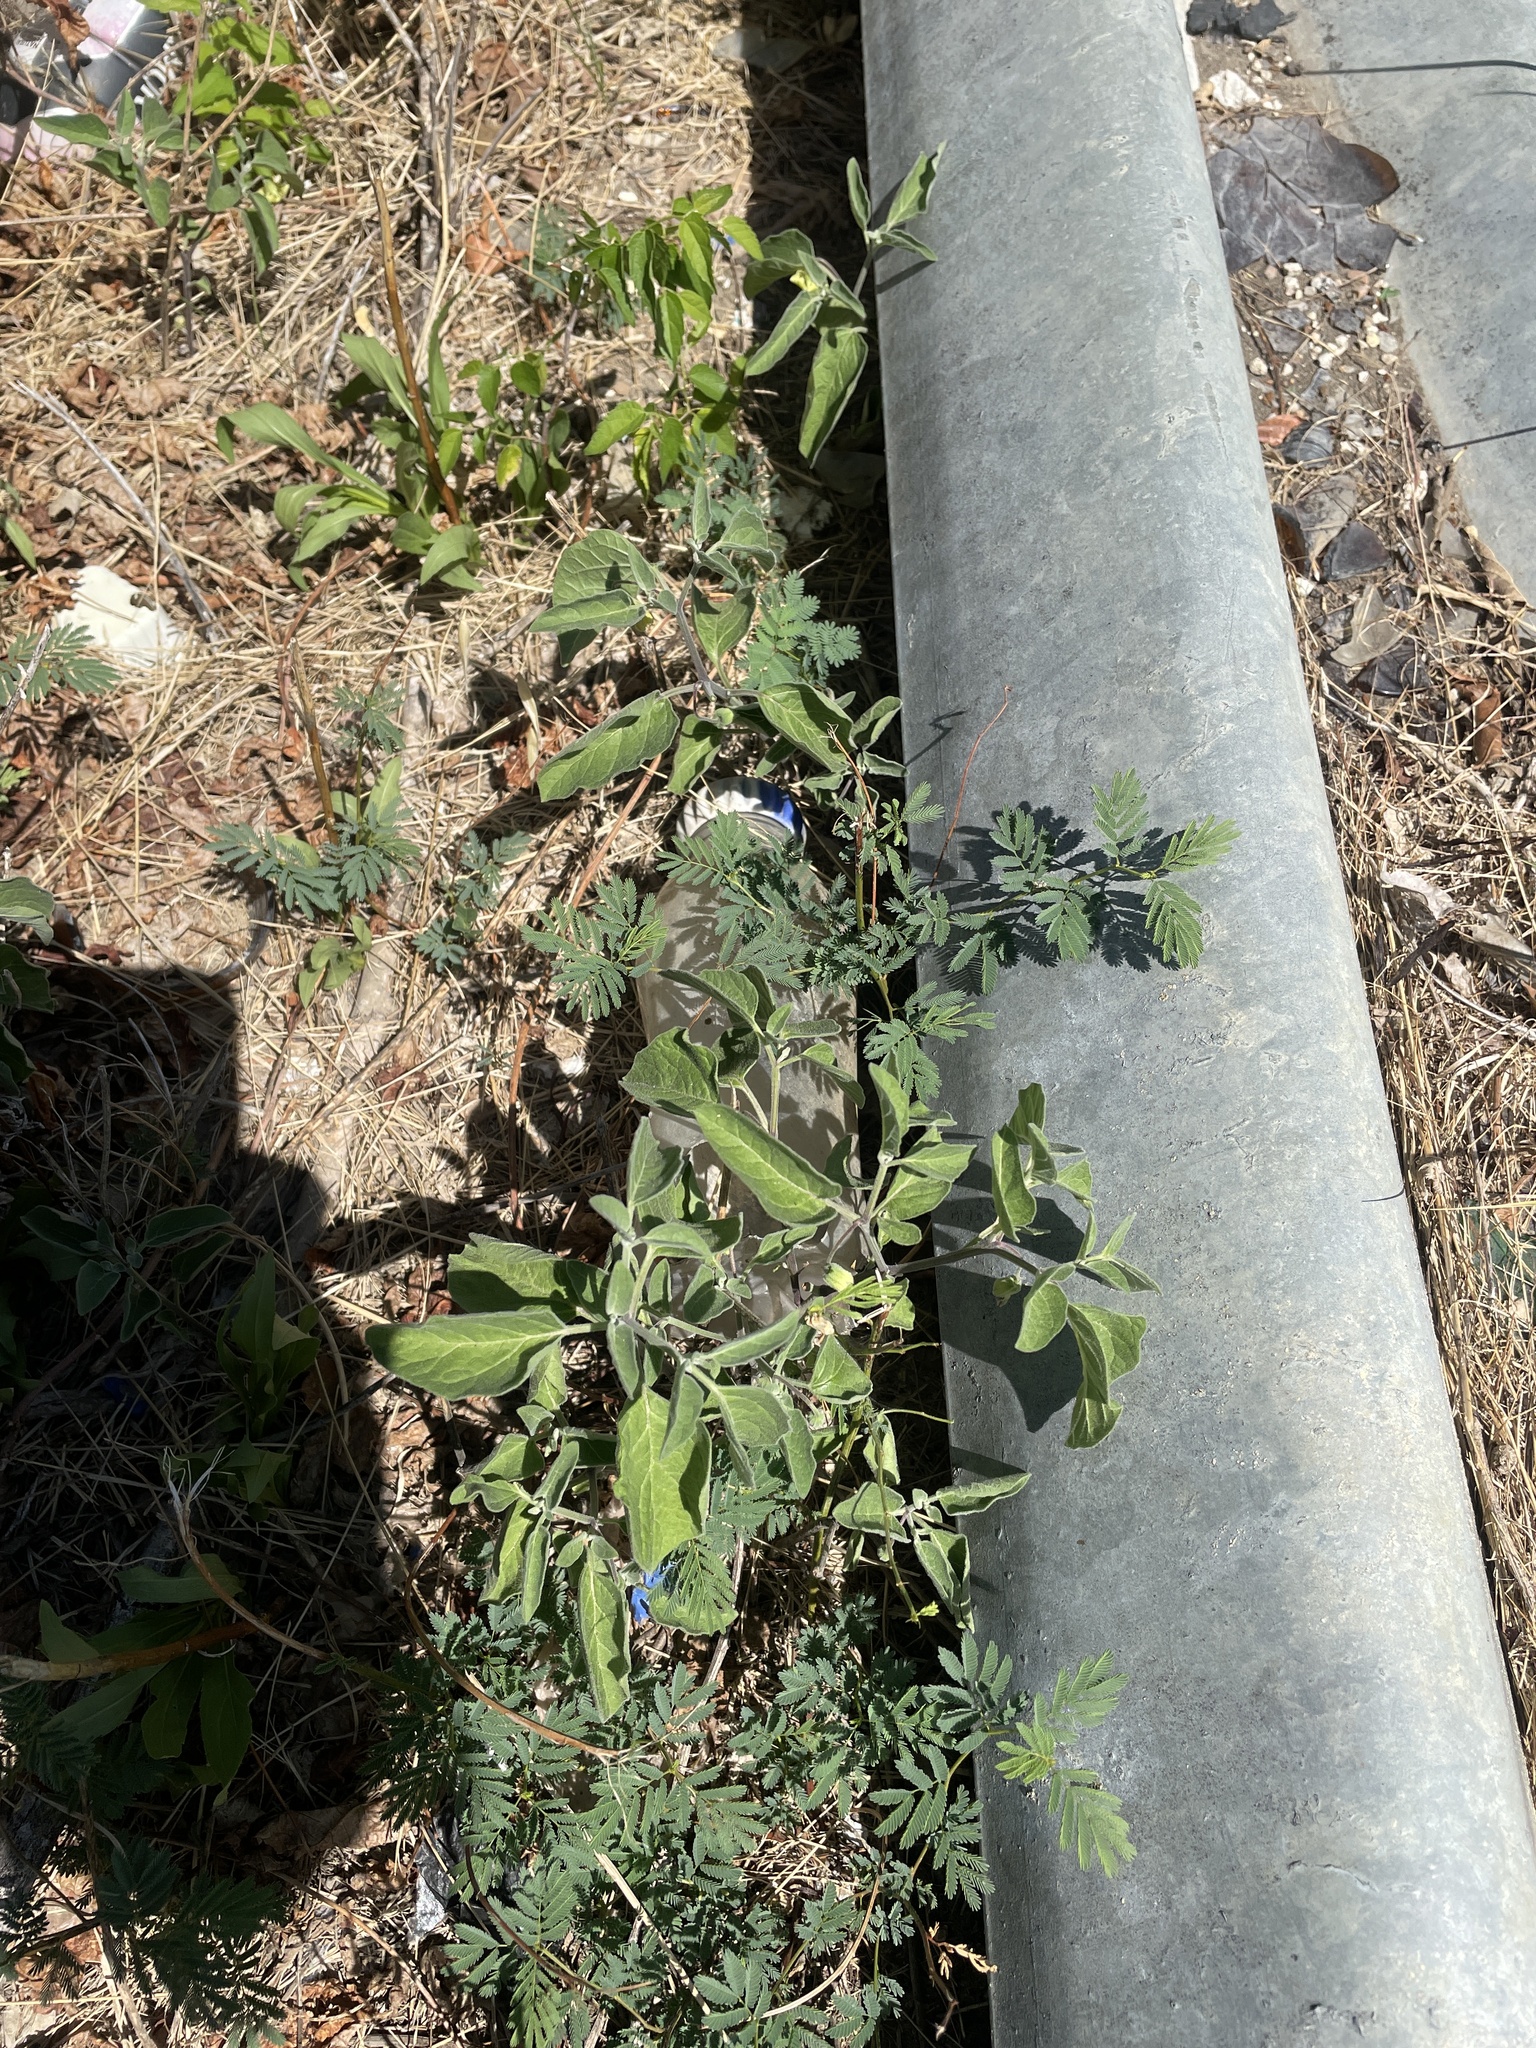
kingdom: Plantae
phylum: Tracheophyta
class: Magnoliopsida
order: Solanales
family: Solanaceae
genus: Physalis
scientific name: Physalis cinerascens
